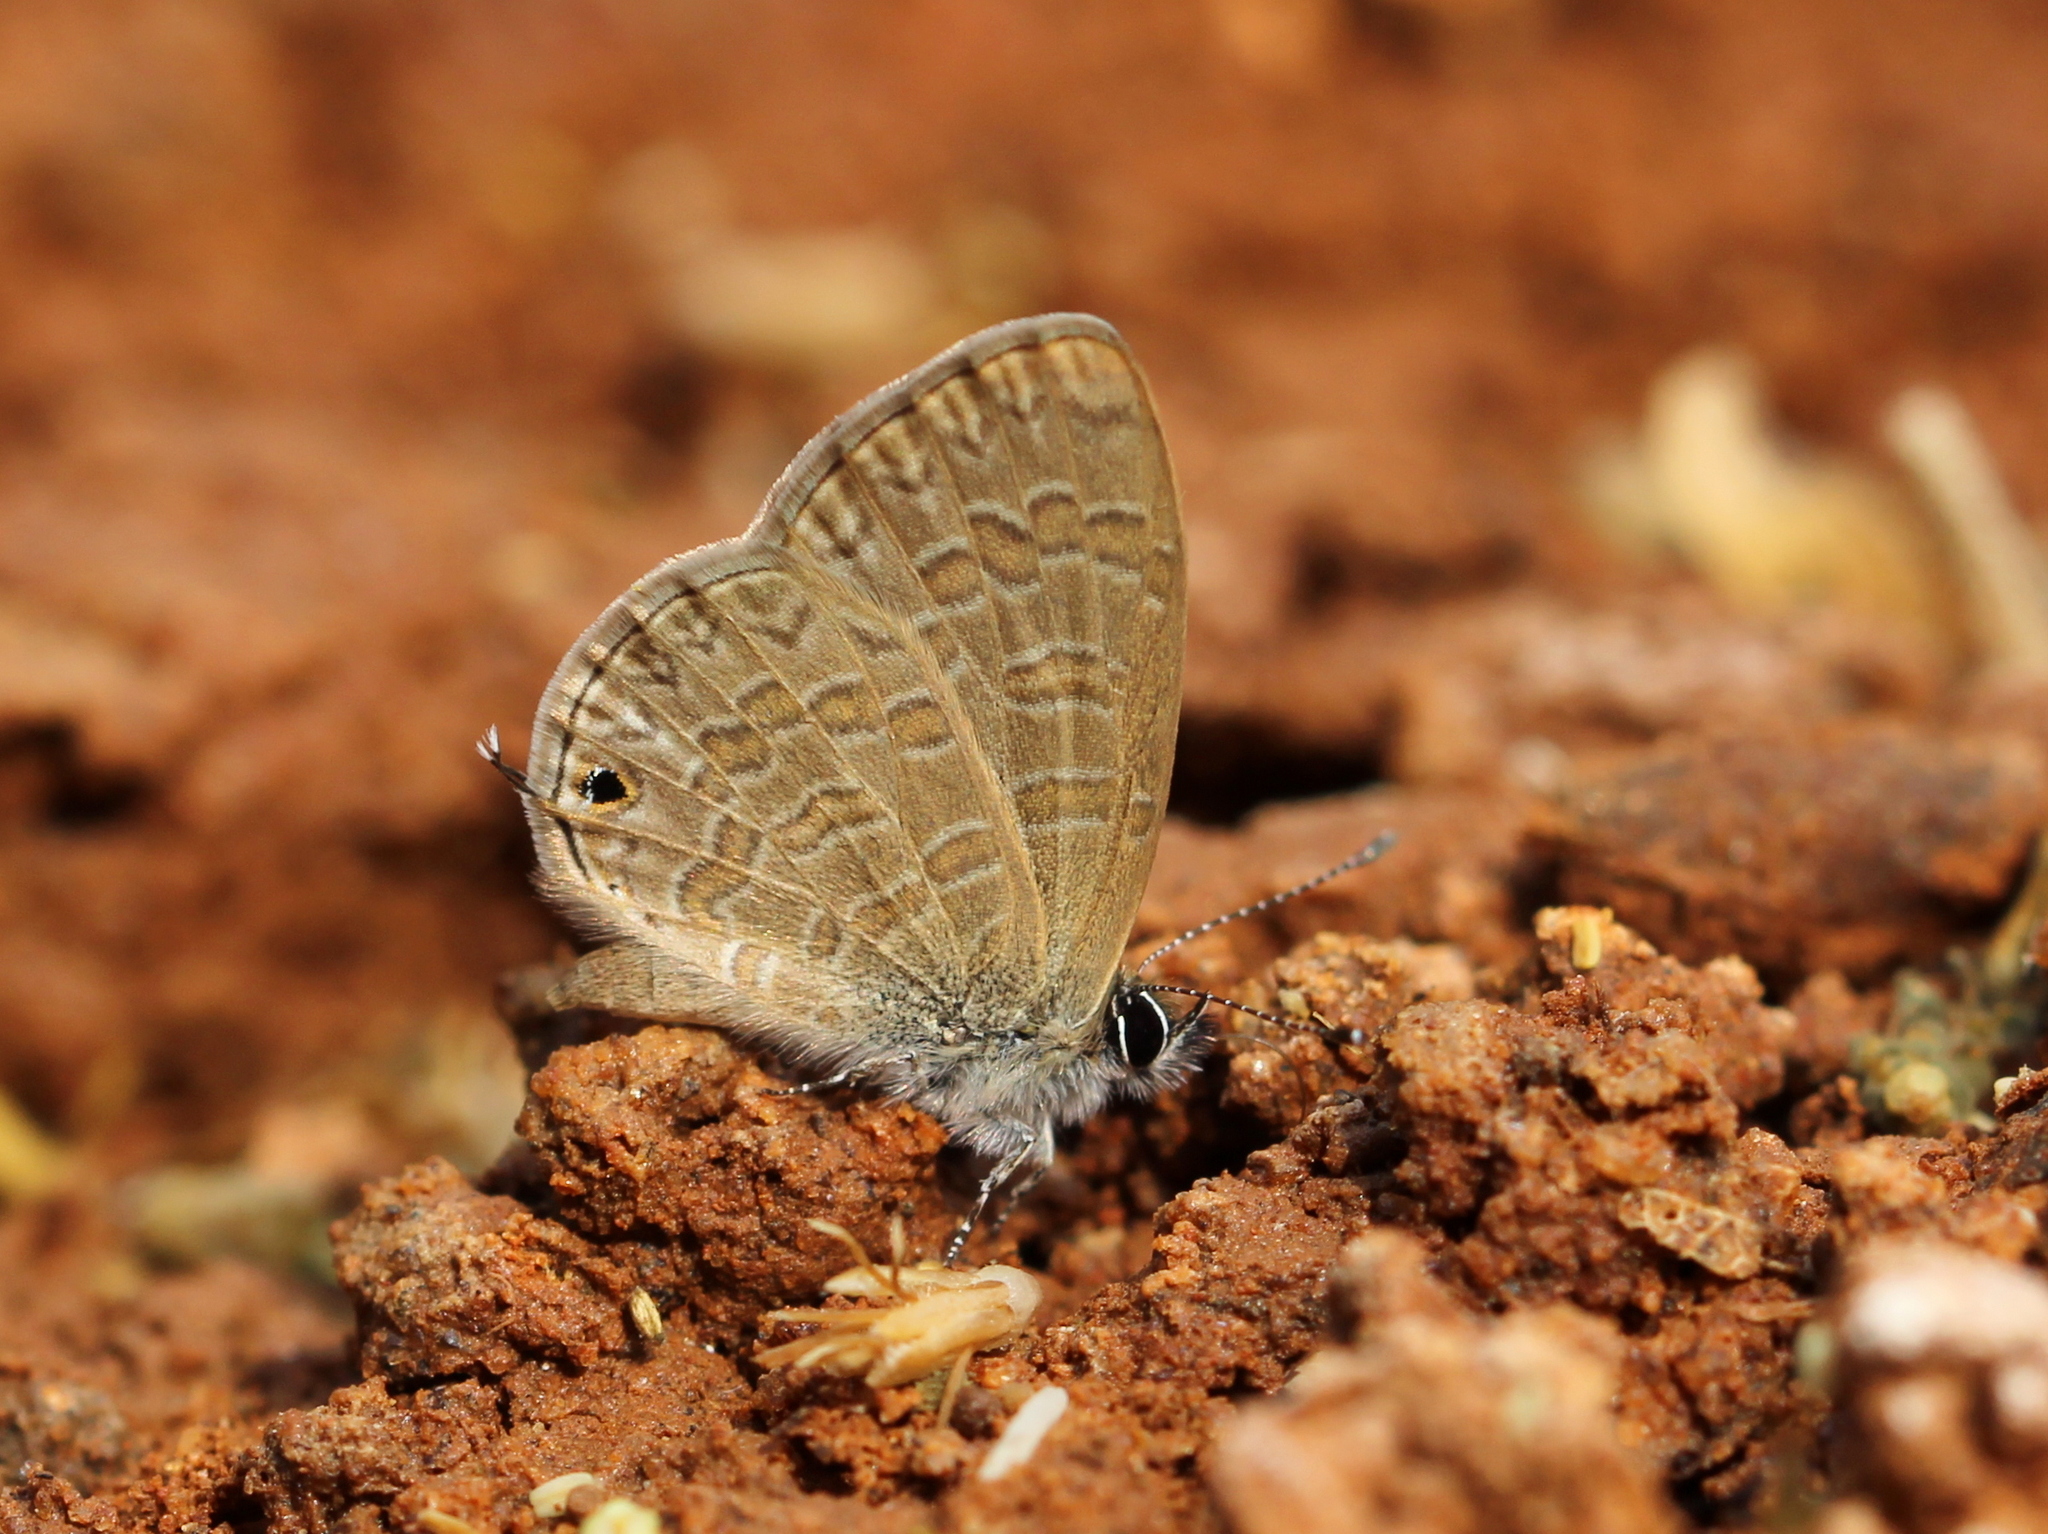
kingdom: Animalia
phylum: Arthropoda
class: Insecta
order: Lepidoptera
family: Lycaenidae
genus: Prosotas
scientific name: Prosotas nora
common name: Common line blue
